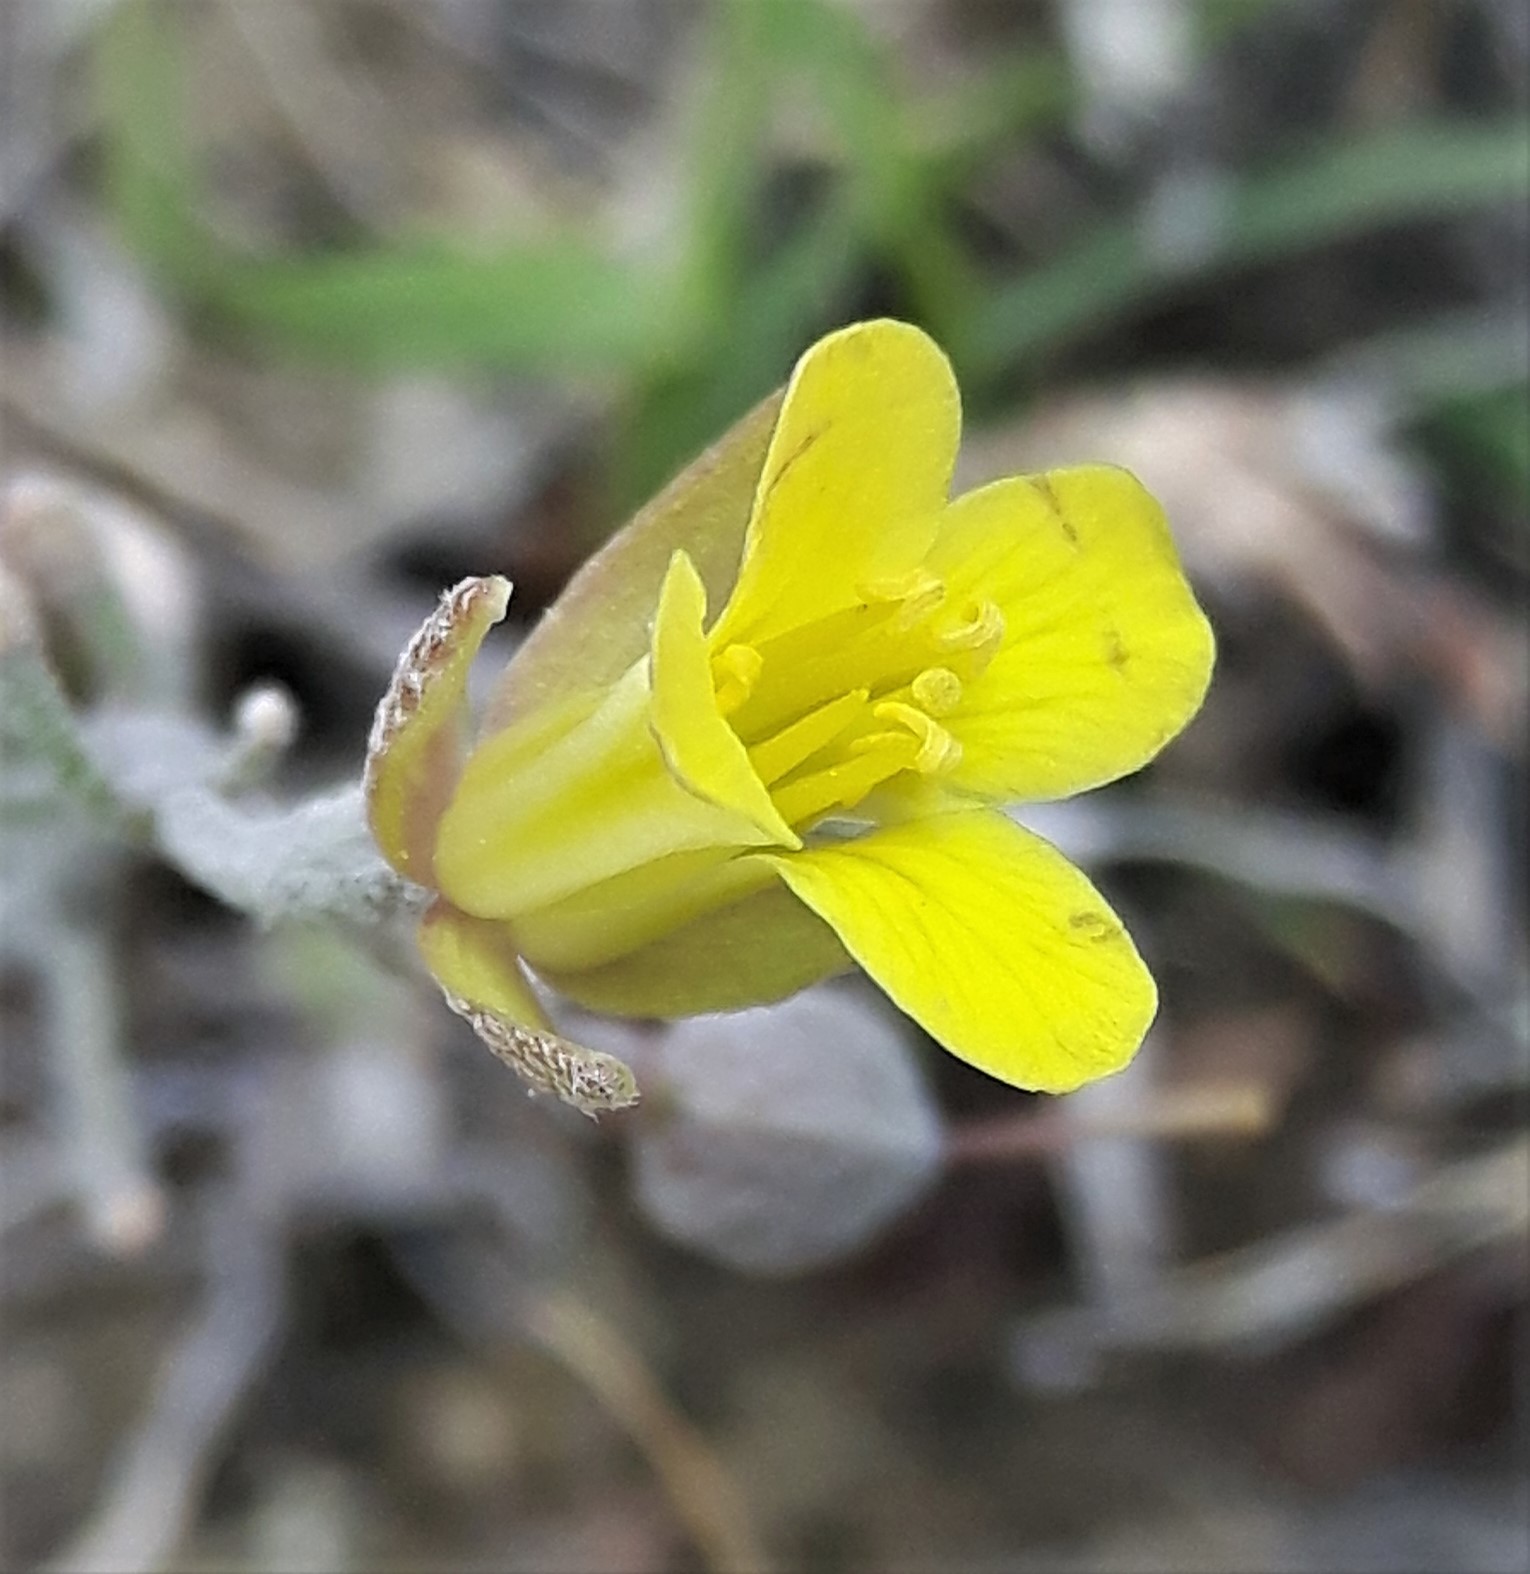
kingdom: Plantae
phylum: Tracheophyta
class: Magnoliopsida
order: Brassicales
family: Brassicaceae
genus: Physaria
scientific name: Physaria arenosa
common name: Great plains bladderpod
